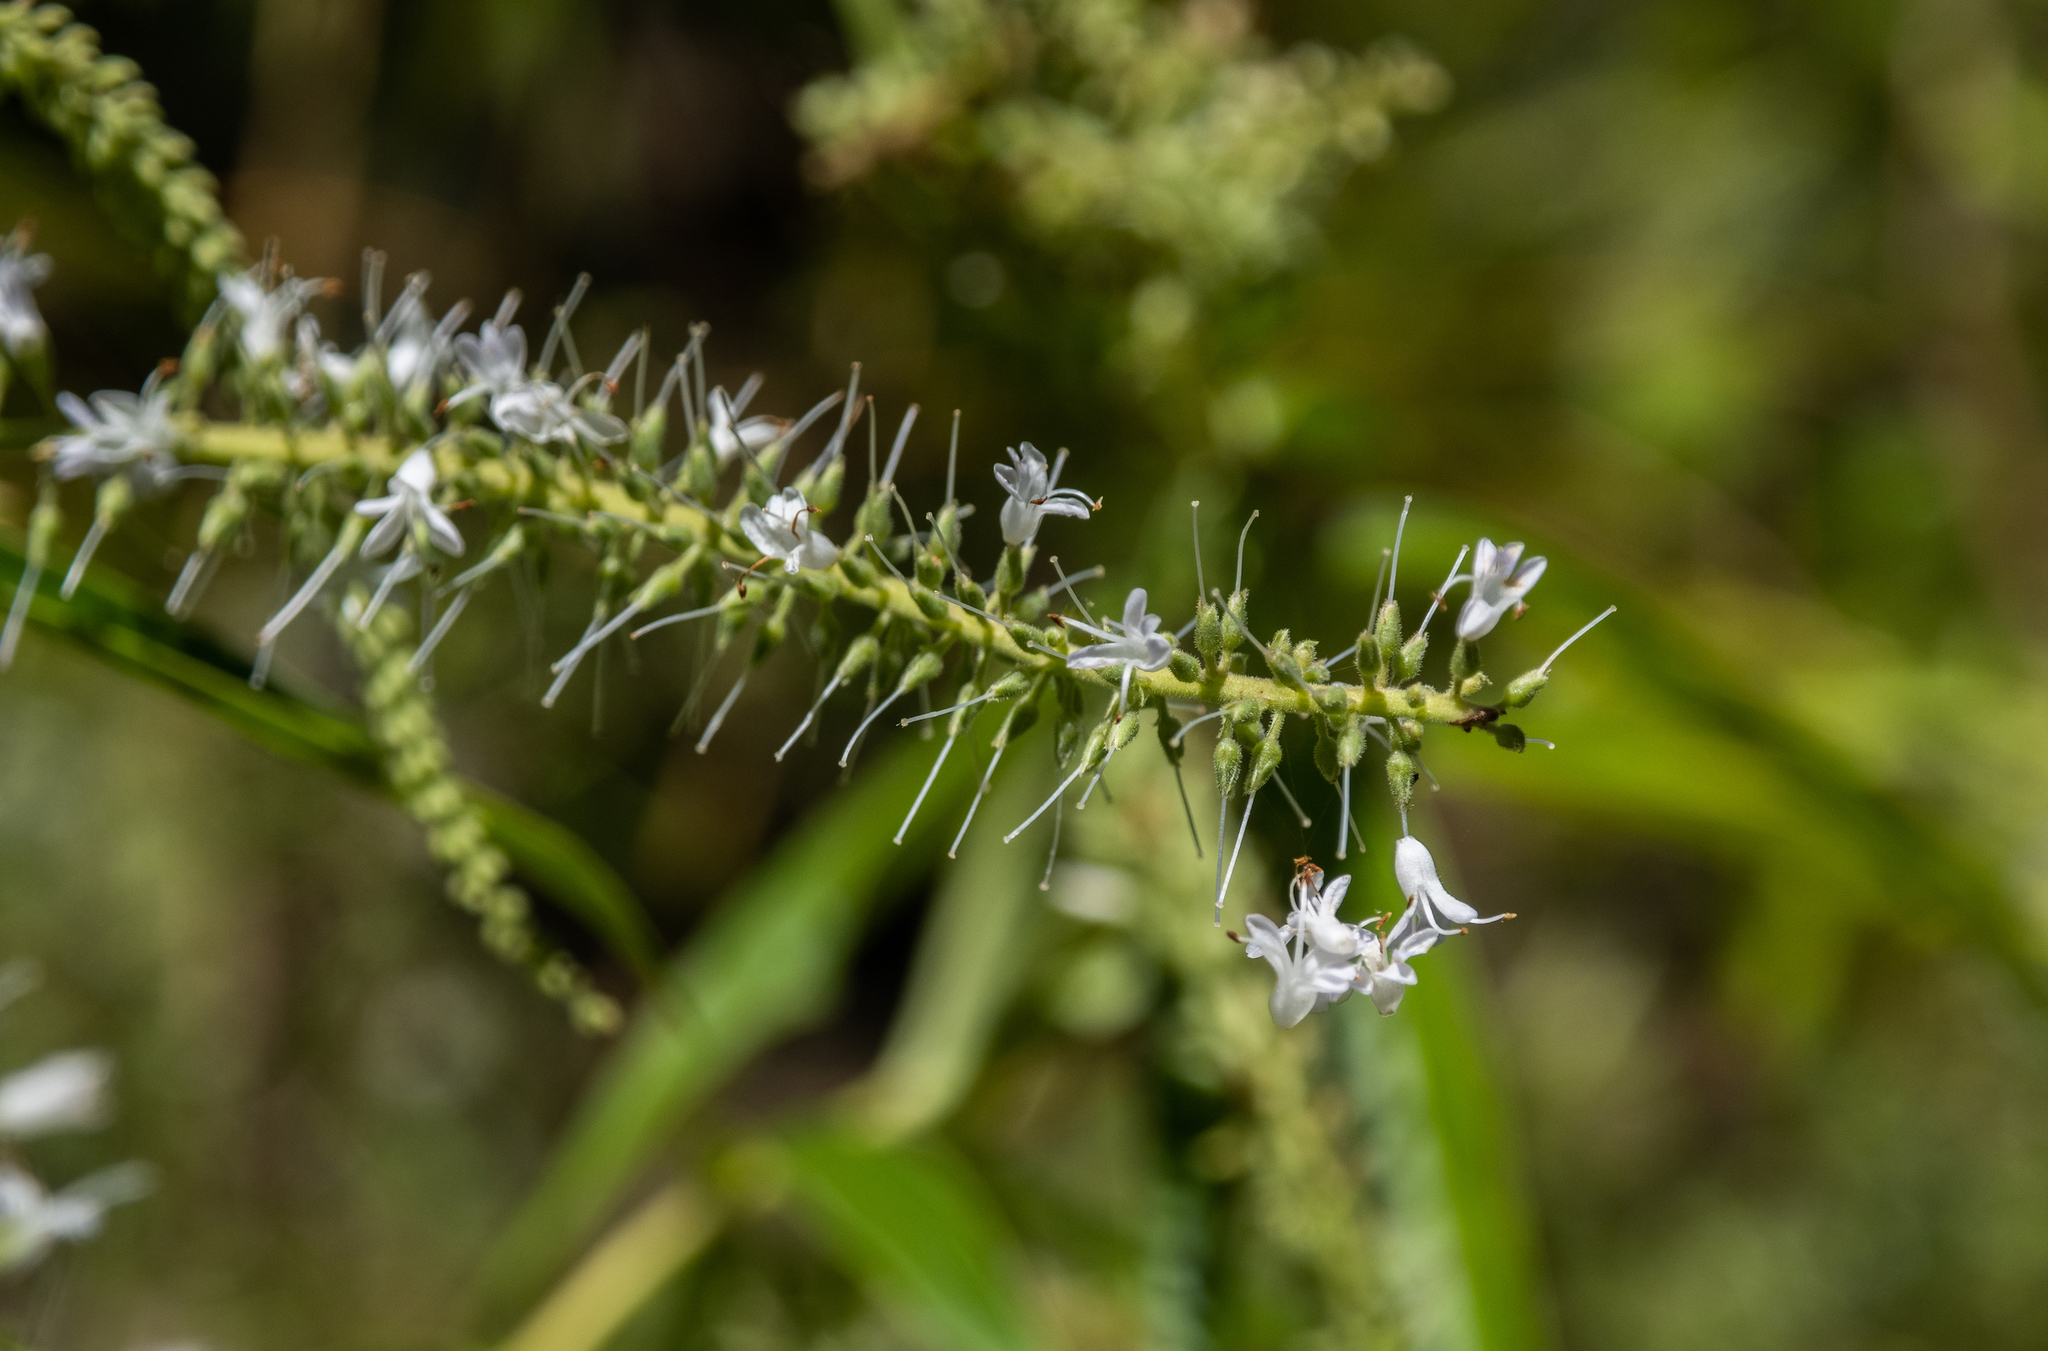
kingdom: Plantae
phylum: Tracheophyta
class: Magnoliopsida
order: Lamiales
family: Plantaginaceae
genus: Veronica
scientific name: Veronica stricta
